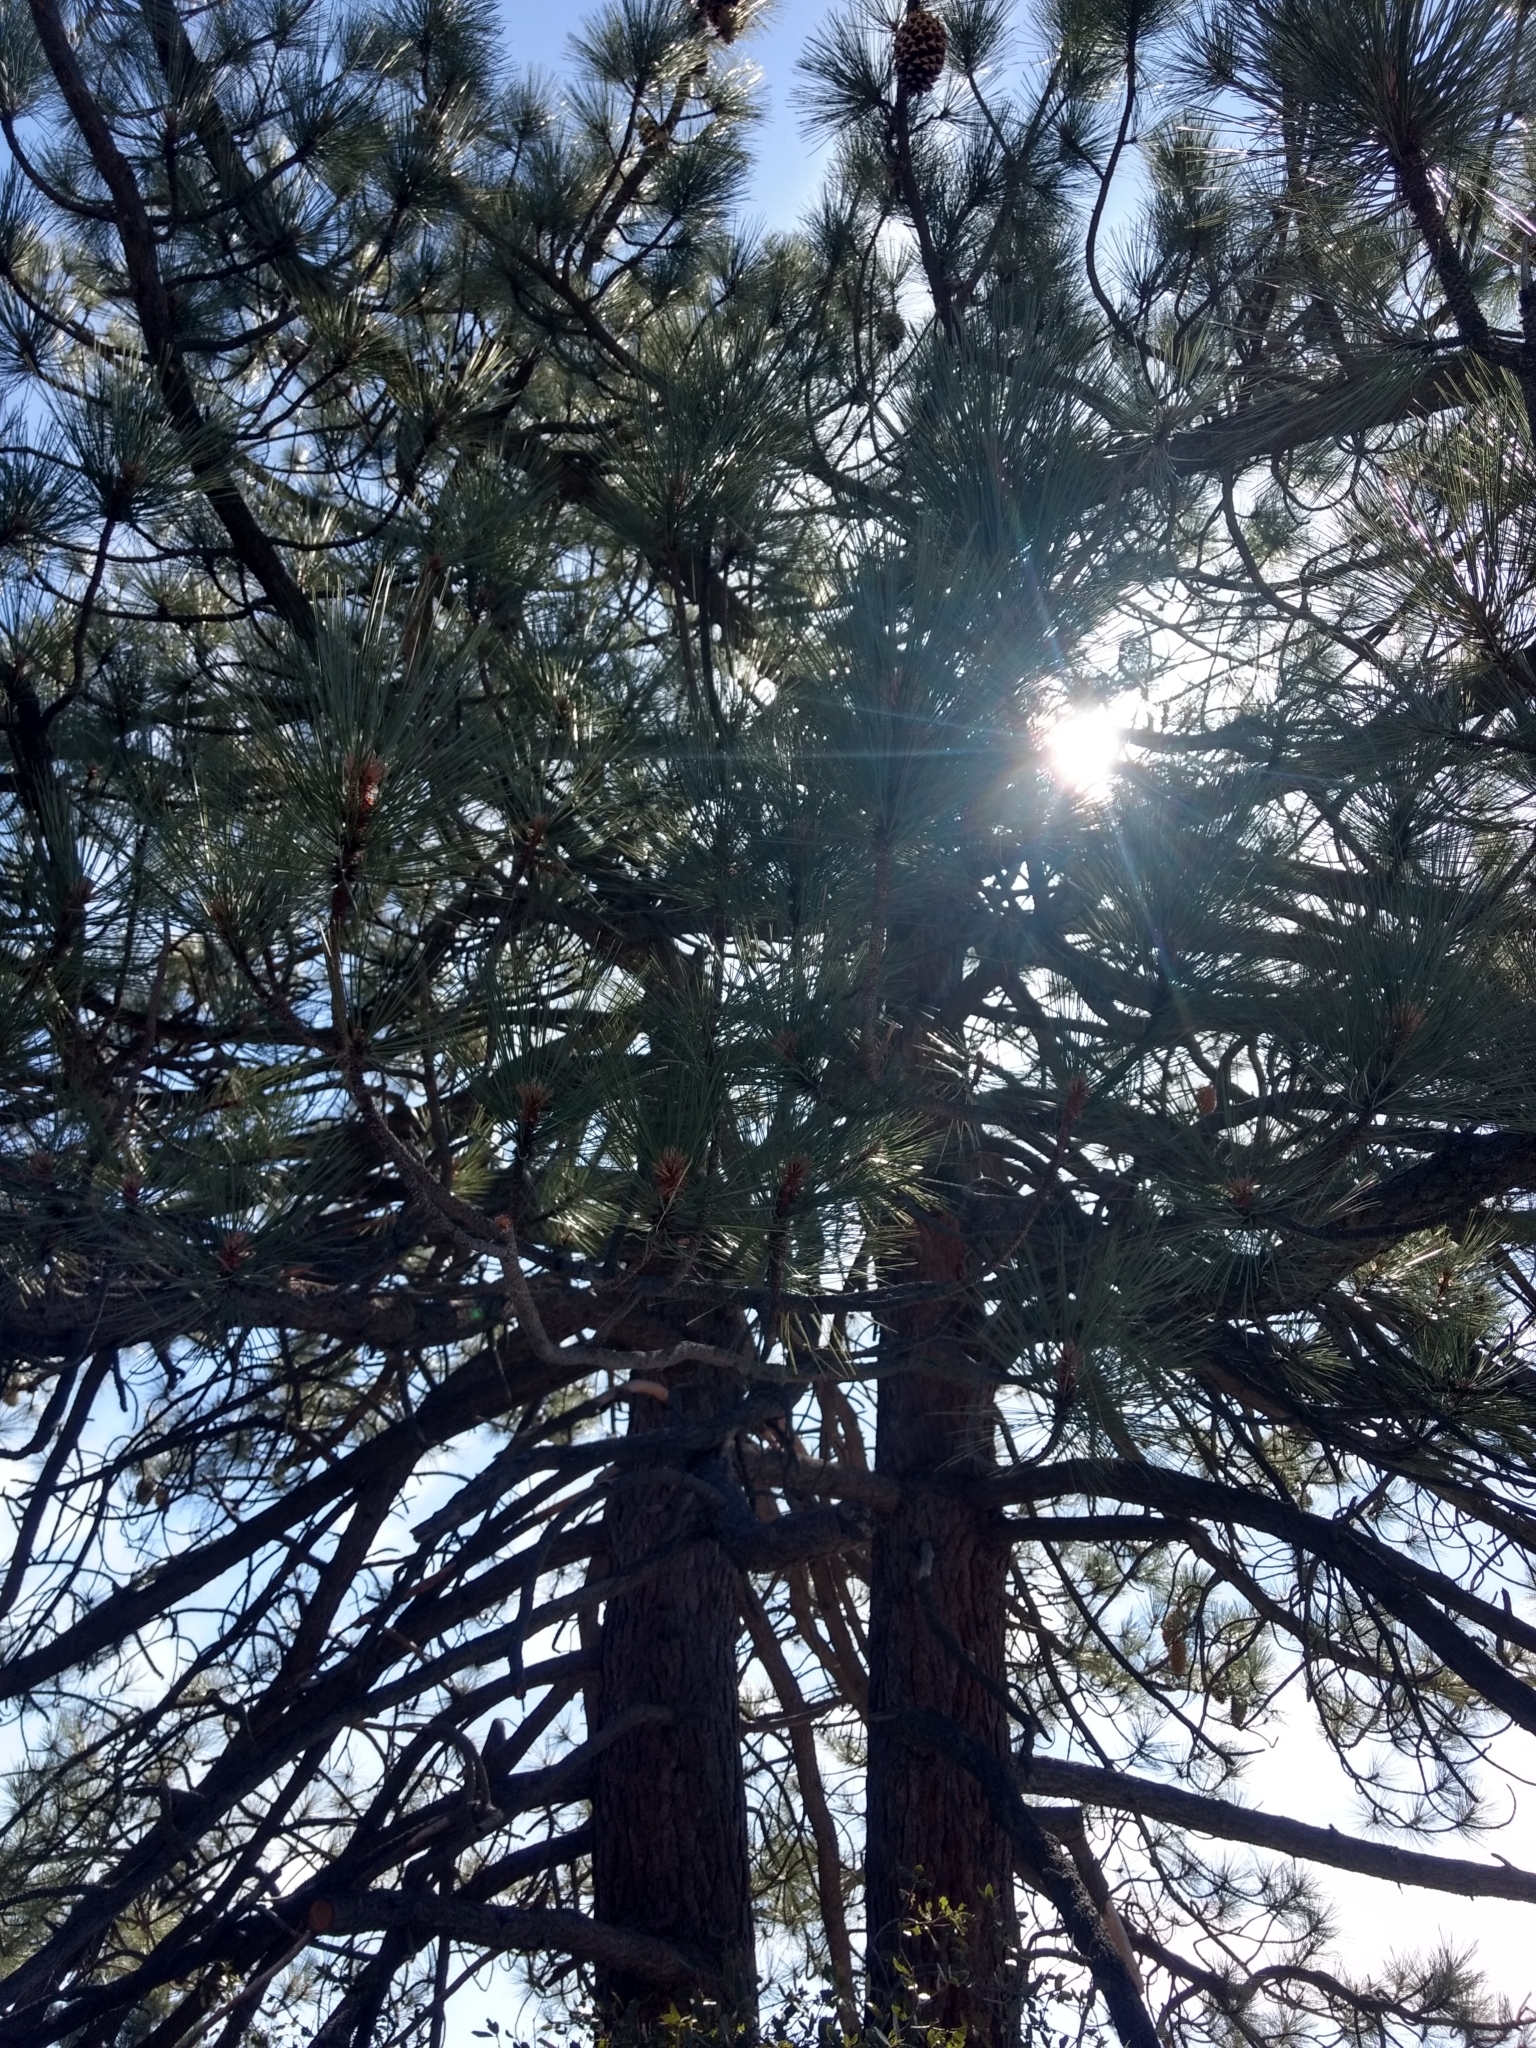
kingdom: Plantae
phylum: Tracheophyta
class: Pinopsida
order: Pinales
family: Pinaceae
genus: Pinus
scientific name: Pinus coulteri
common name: Coulter pine
